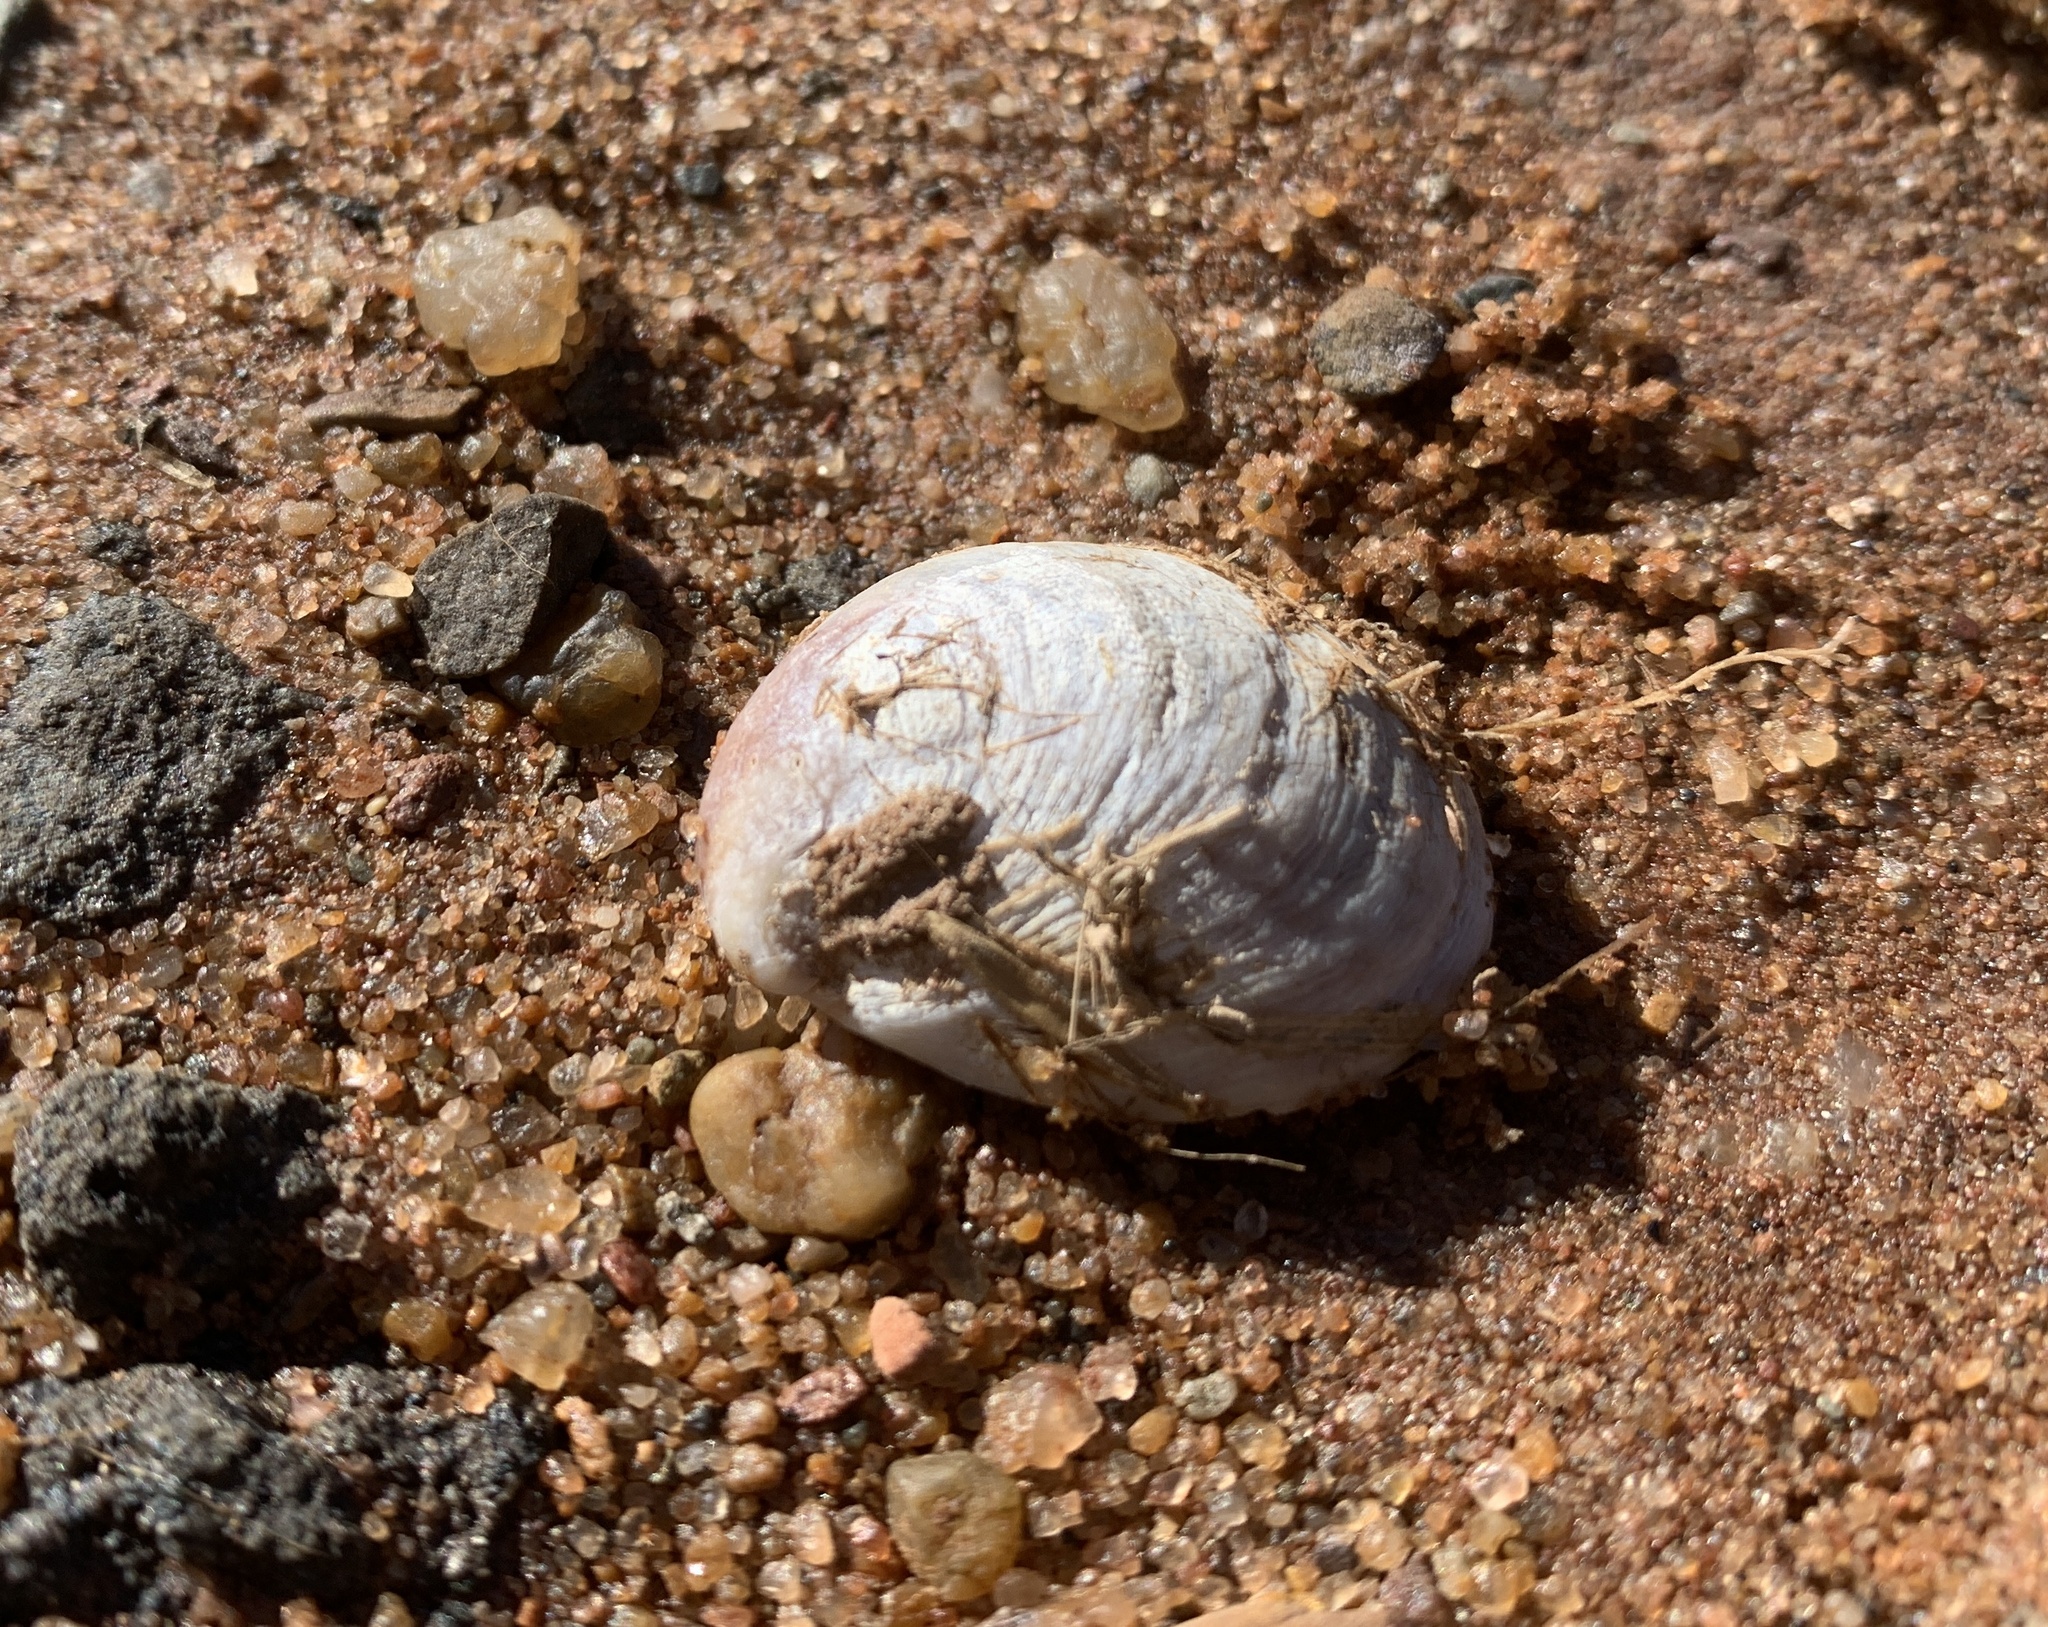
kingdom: Animalia
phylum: Mollusca
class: Gastropoda
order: Littorinimorpha
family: Calyptraeidae
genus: Crepidula
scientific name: Crepidula fornicata
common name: Slipper limpet
